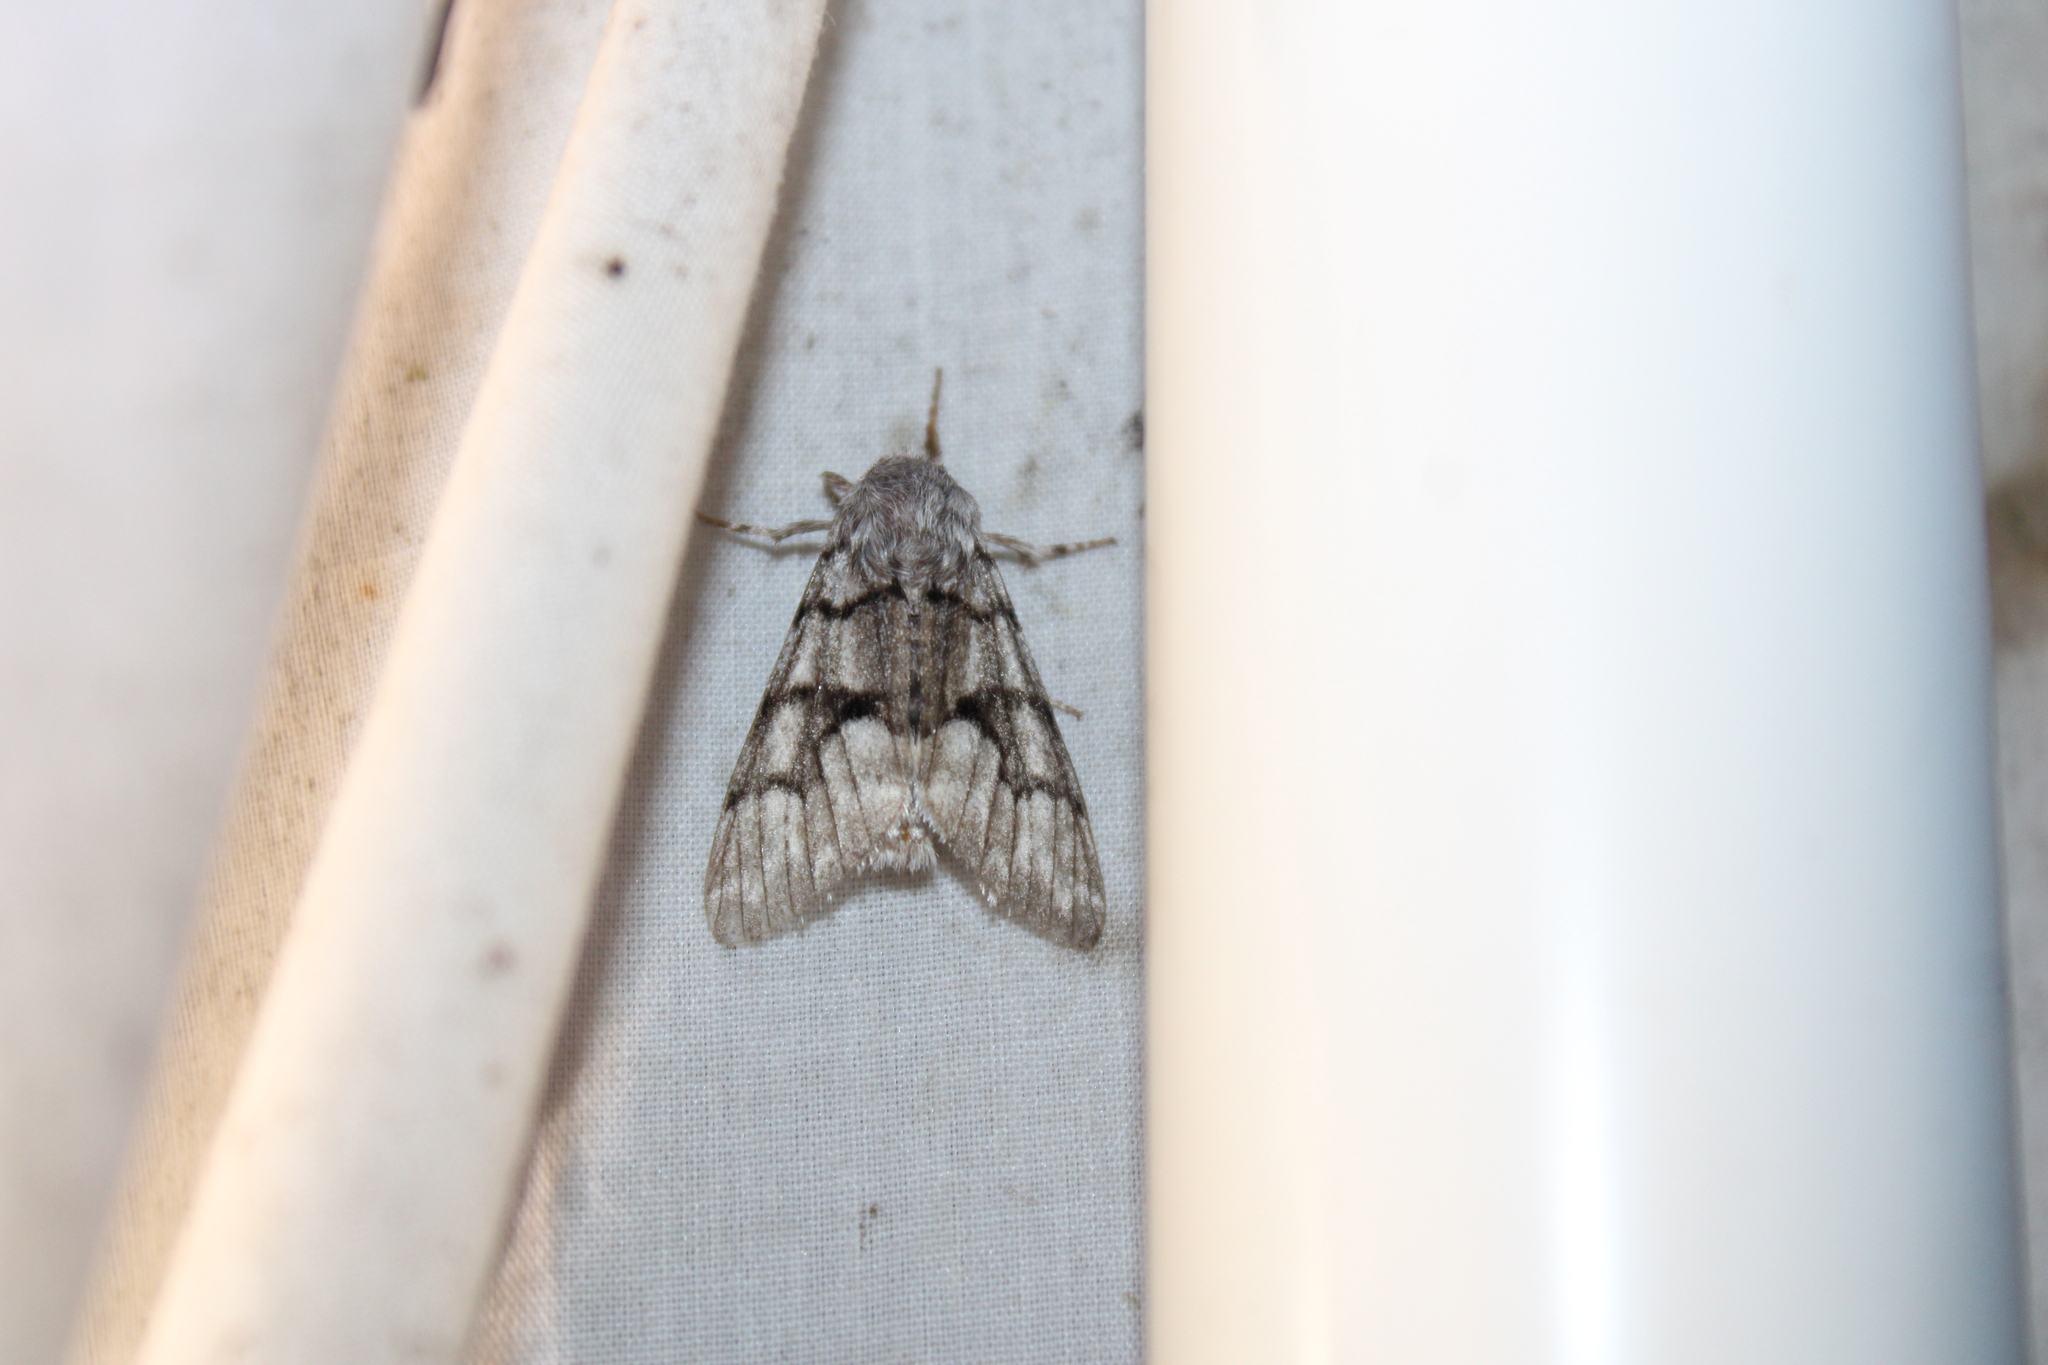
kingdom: Animalia
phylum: Arthropoda
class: Insecta
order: Lepidoptera
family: Noctuidae
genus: Panthea
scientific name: Panthea furcilla
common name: Eastern panthea moth
